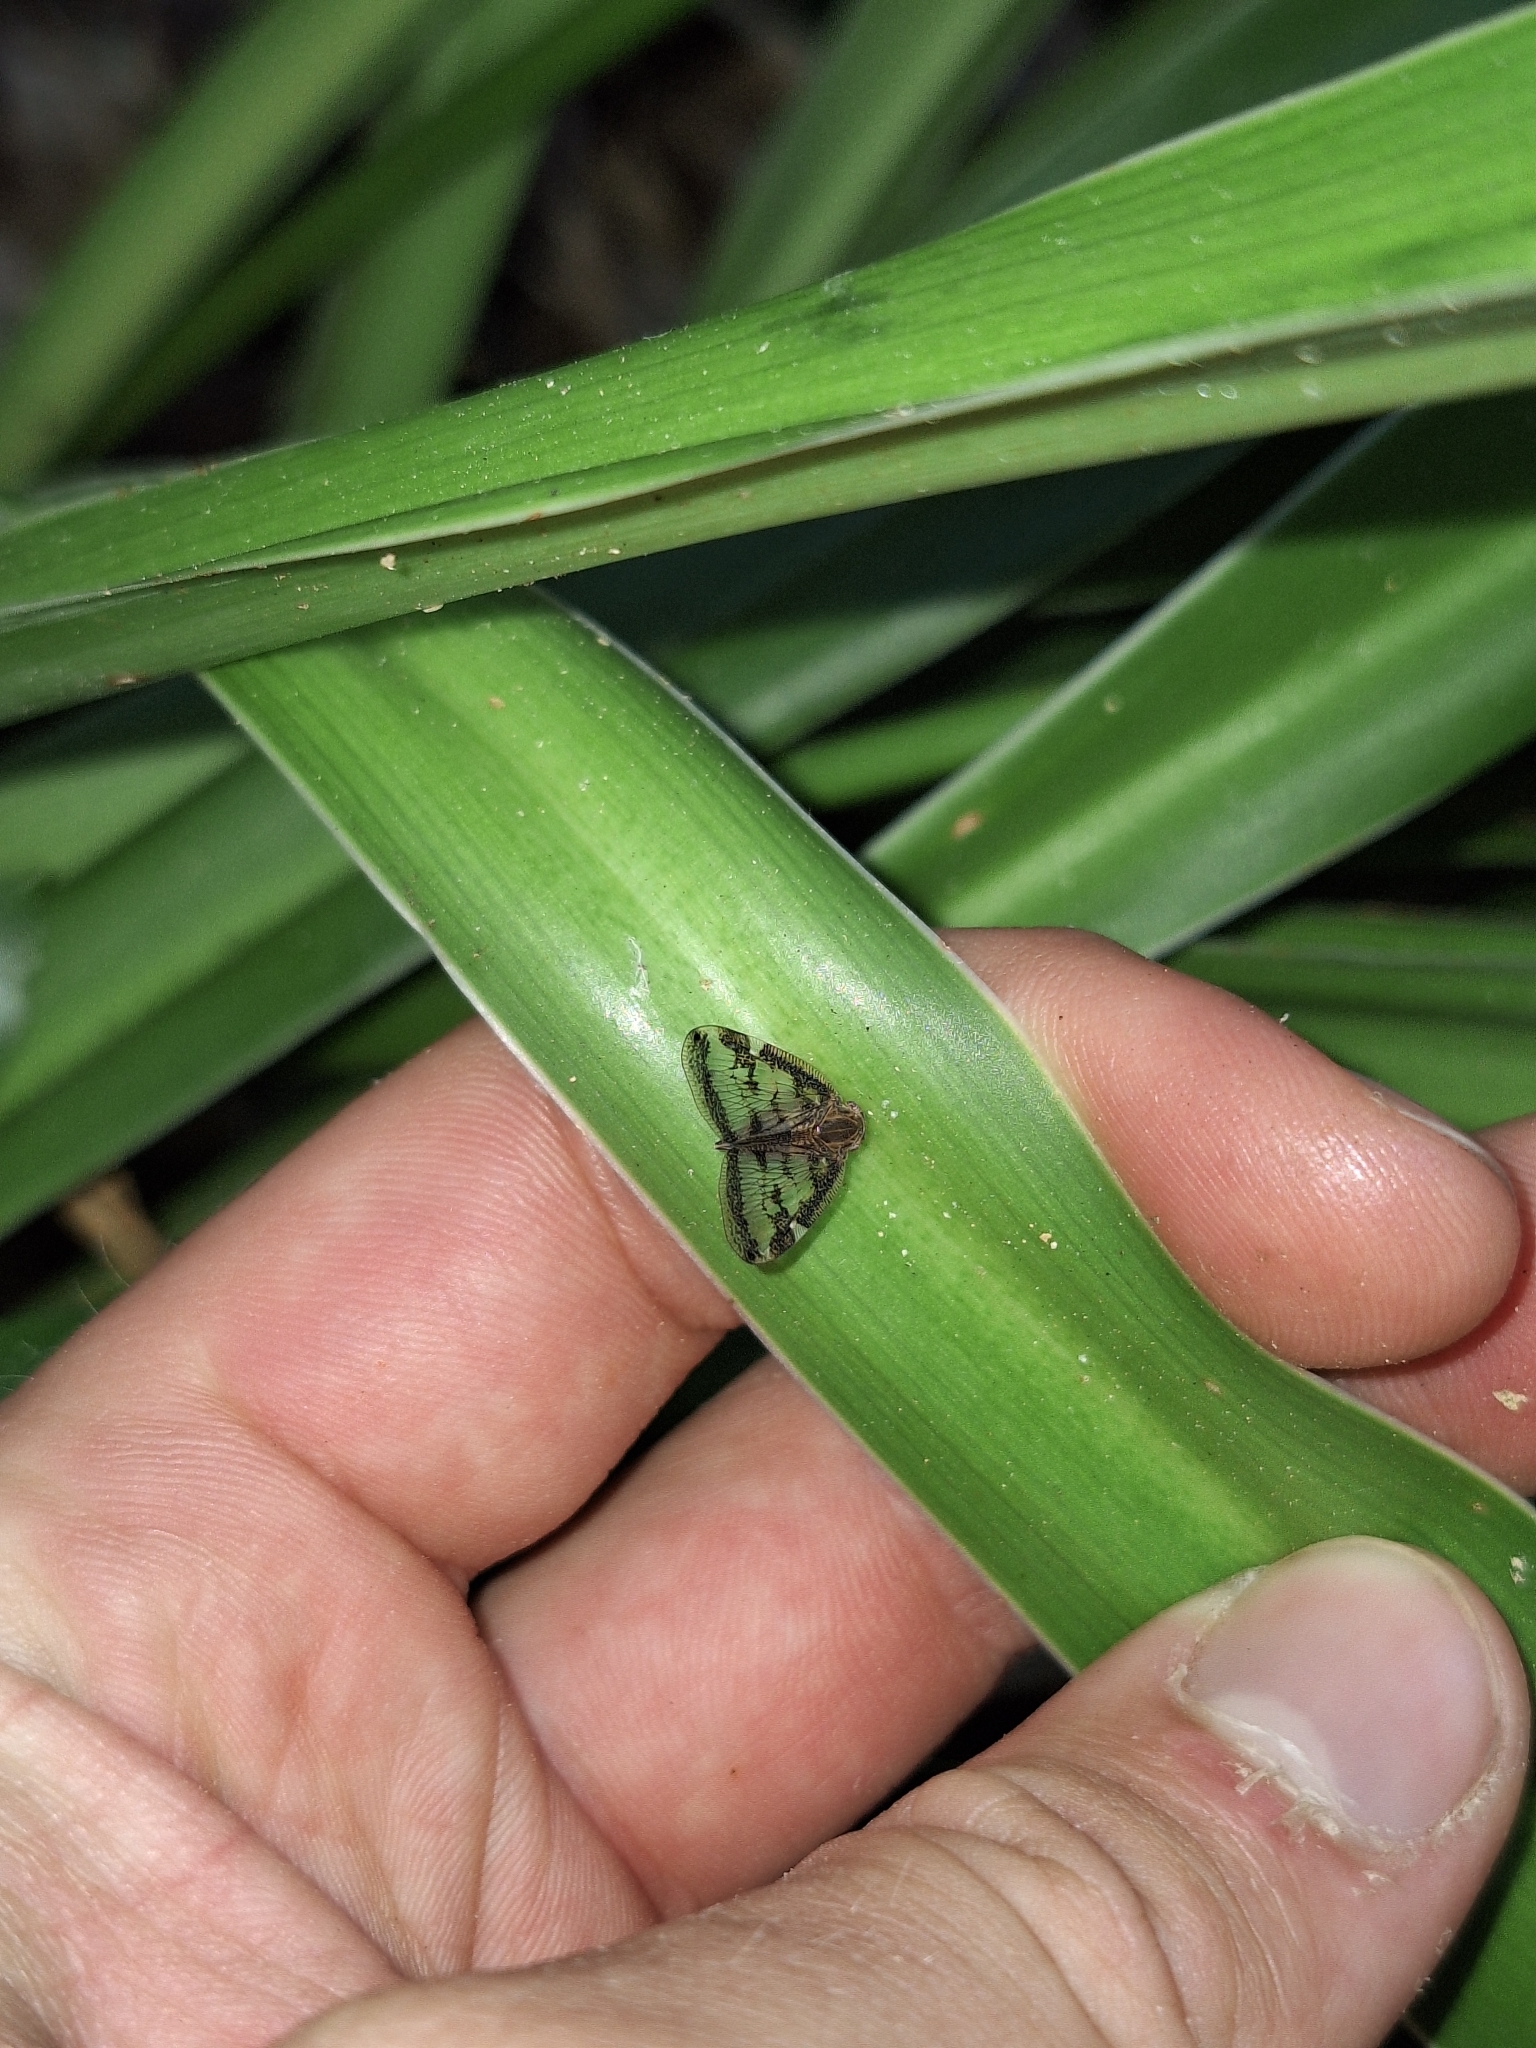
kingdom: Animalia
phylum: Arthropoda
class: Insecta
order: Hemiptera
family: Ricaniidae
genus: Scolypopa
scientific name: Scolypopa australis
